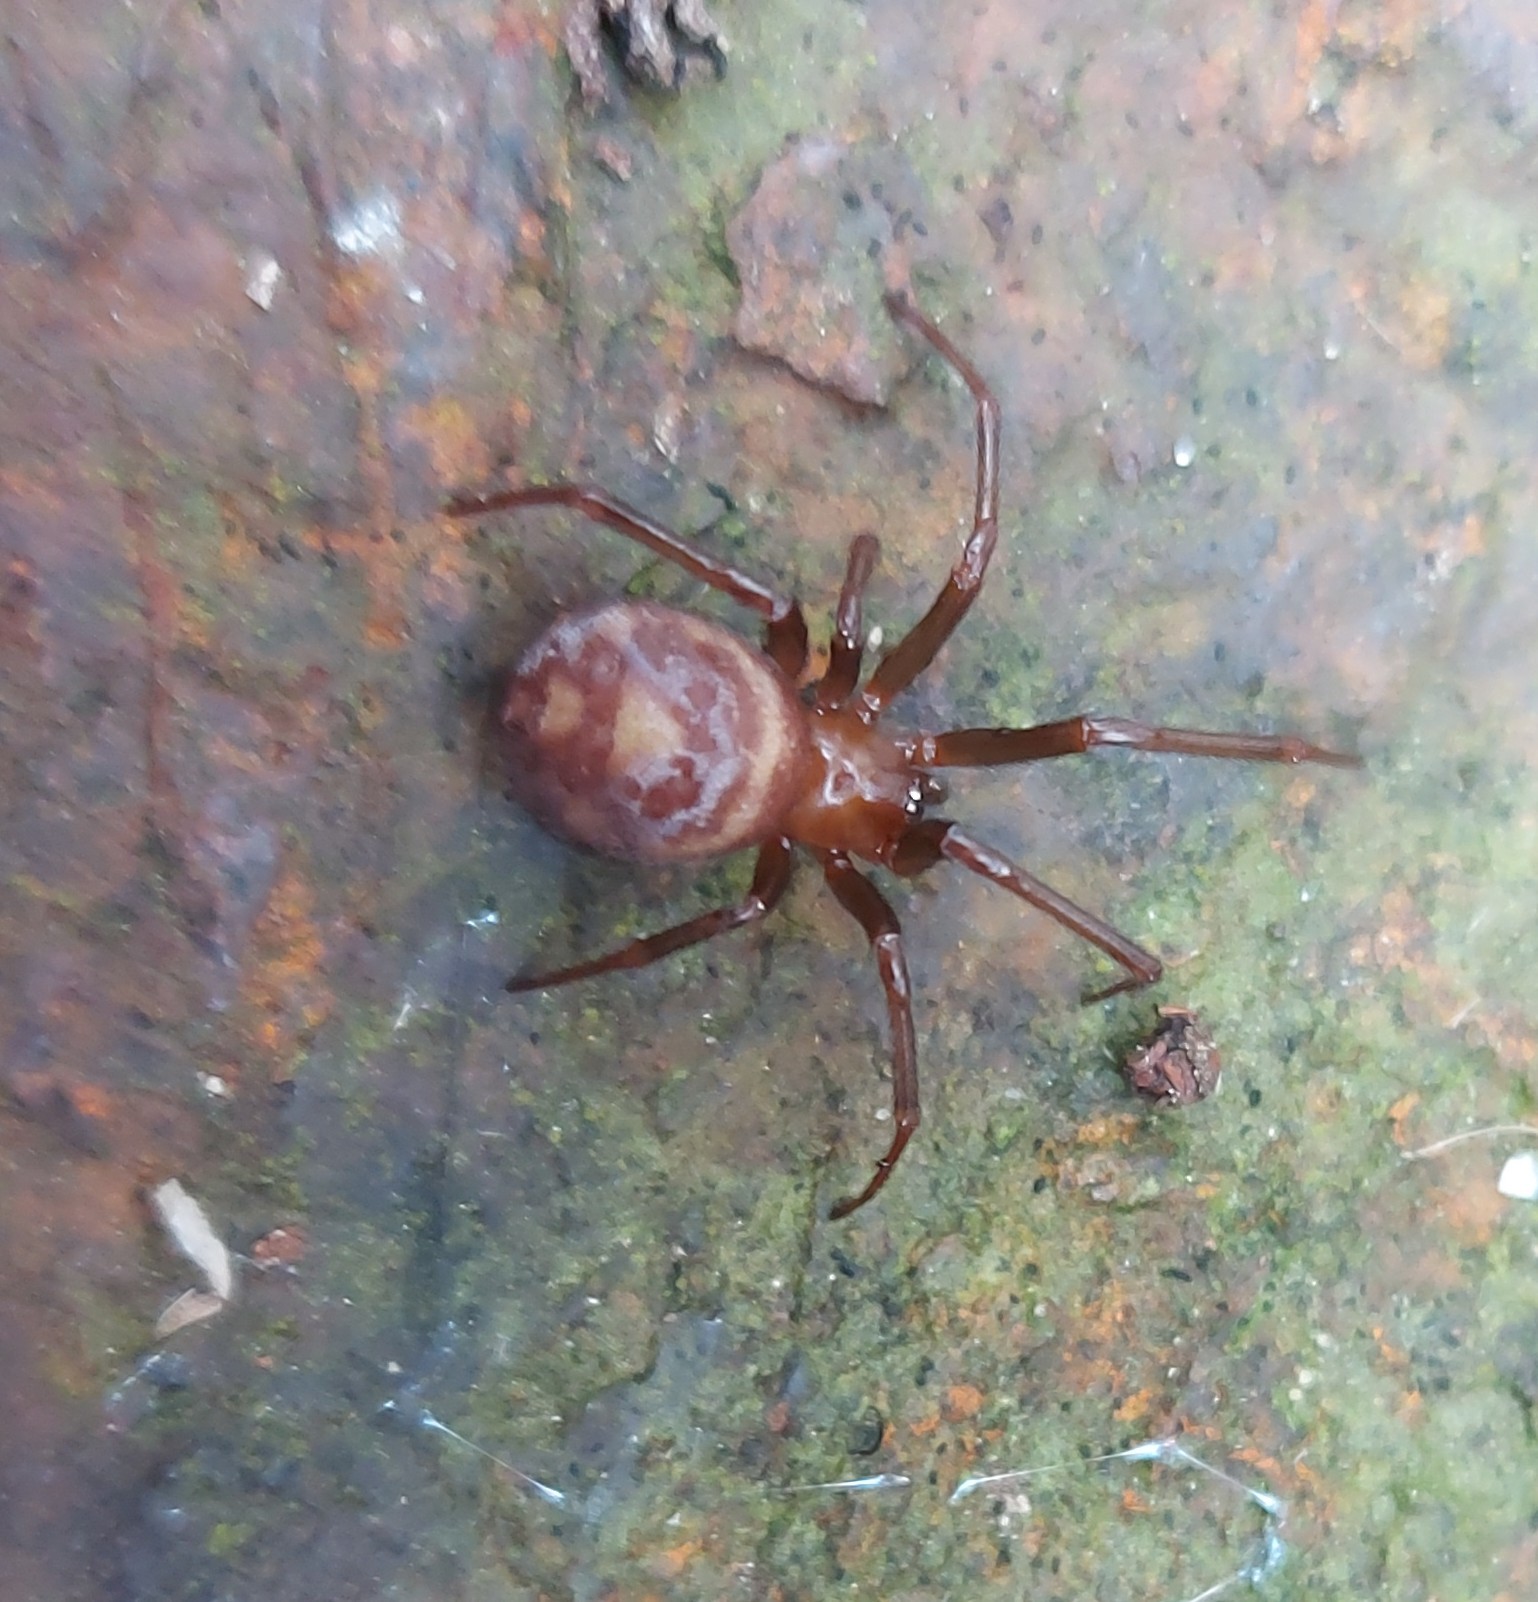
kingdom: Animalia
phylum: Arthropoda
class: Arachnida
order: Araneae
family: Theridiidae
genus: Steatoda
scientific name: Steatoda grossa
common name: False black widow
